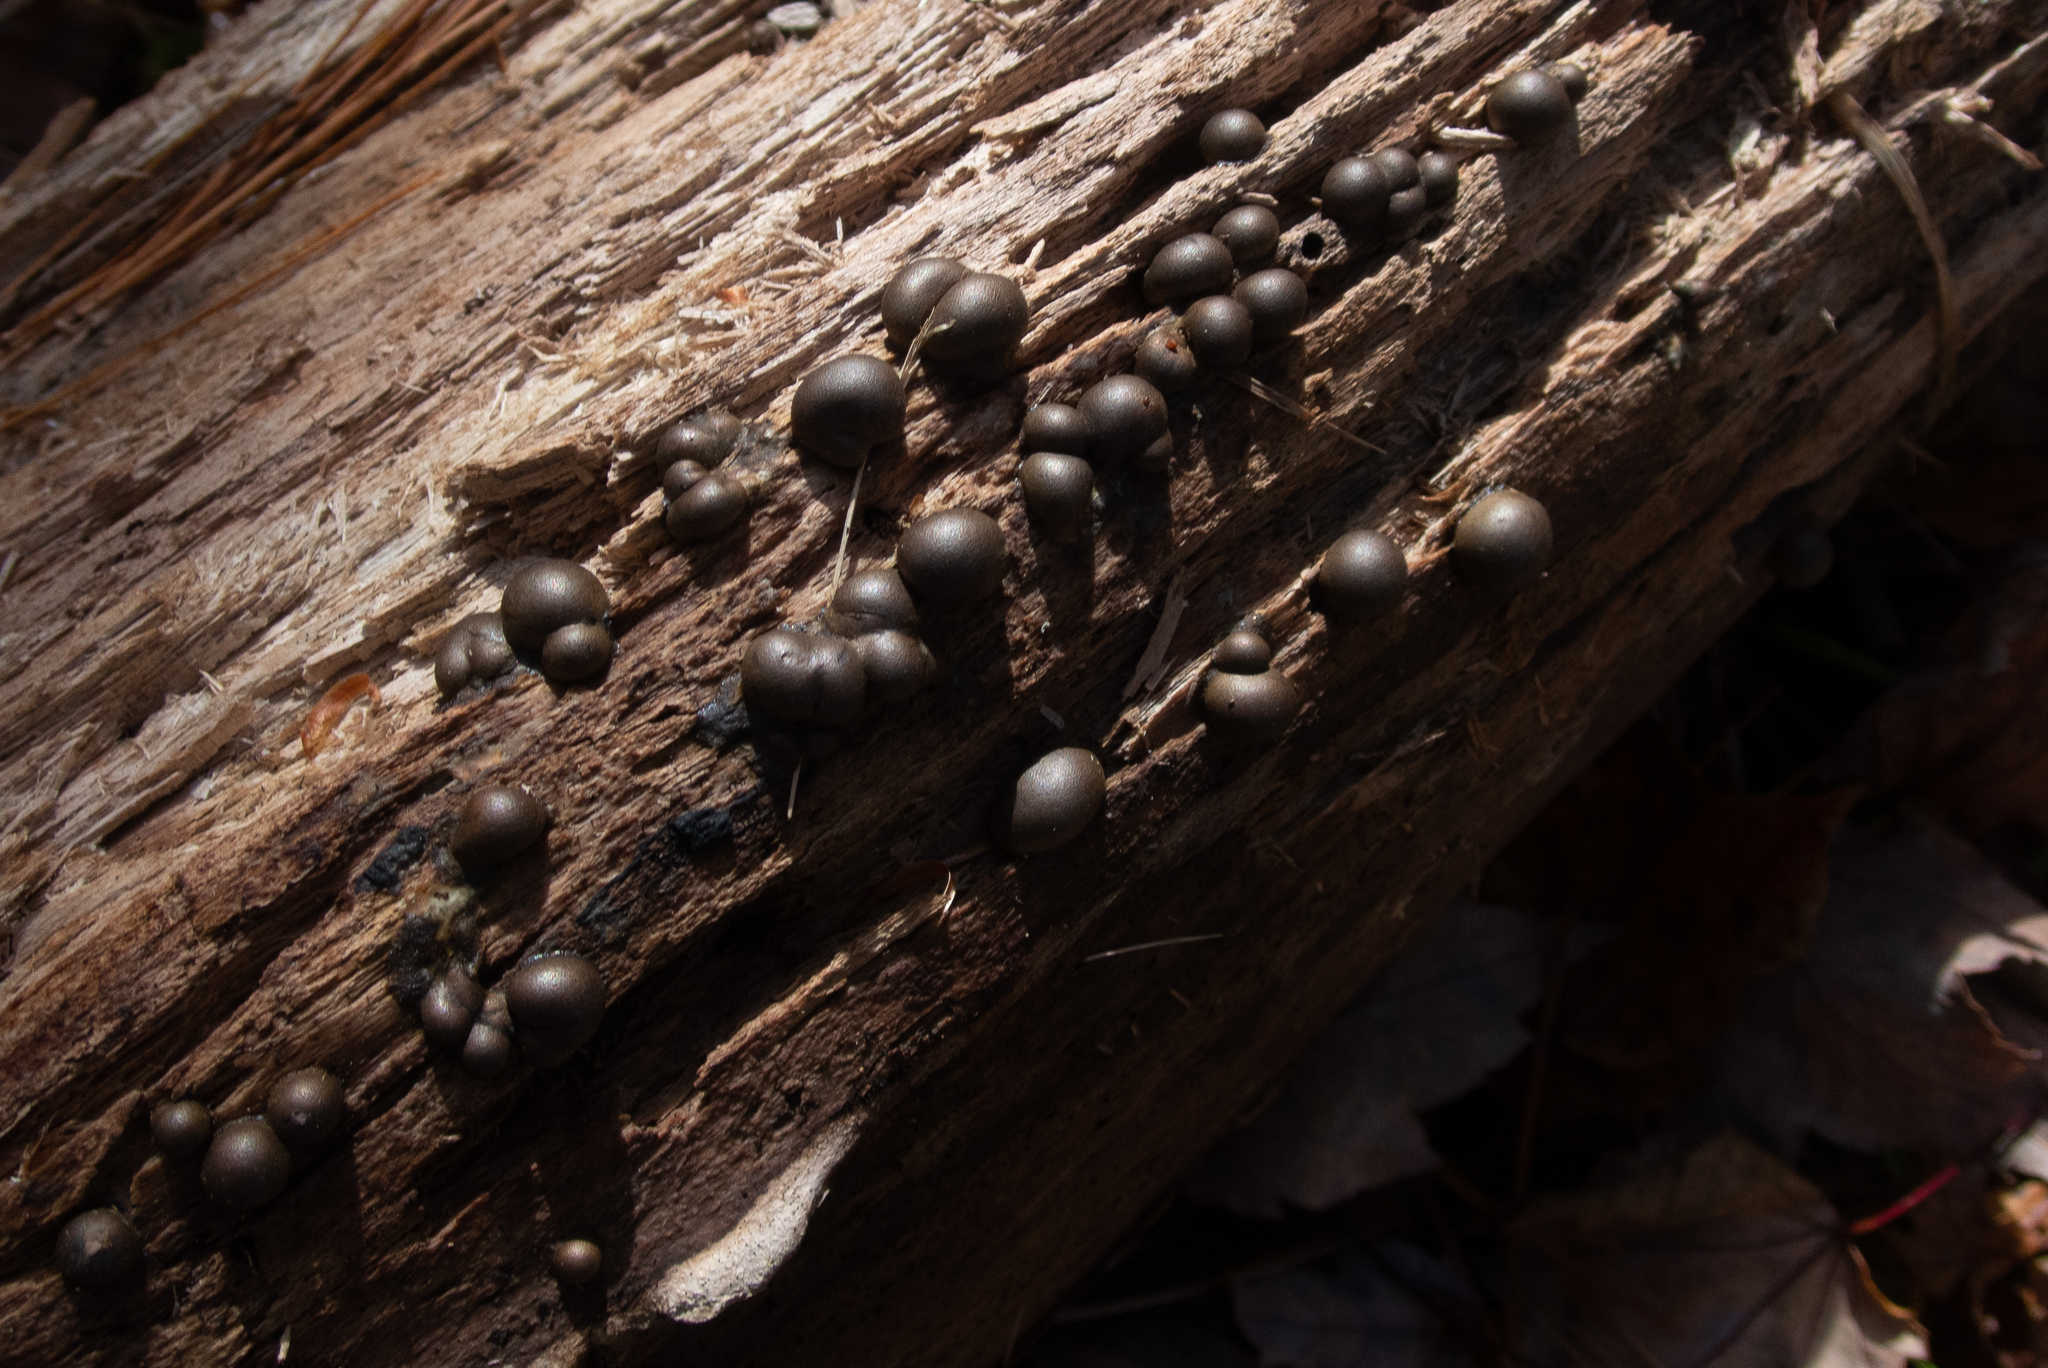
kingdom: Protozoa
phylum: Mycetozoa
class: Myxomycetes
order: Cribrariales
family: Tubiferaceae
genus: Lycogala
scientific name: Lycogala epidendrum
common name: Wolf's milk
